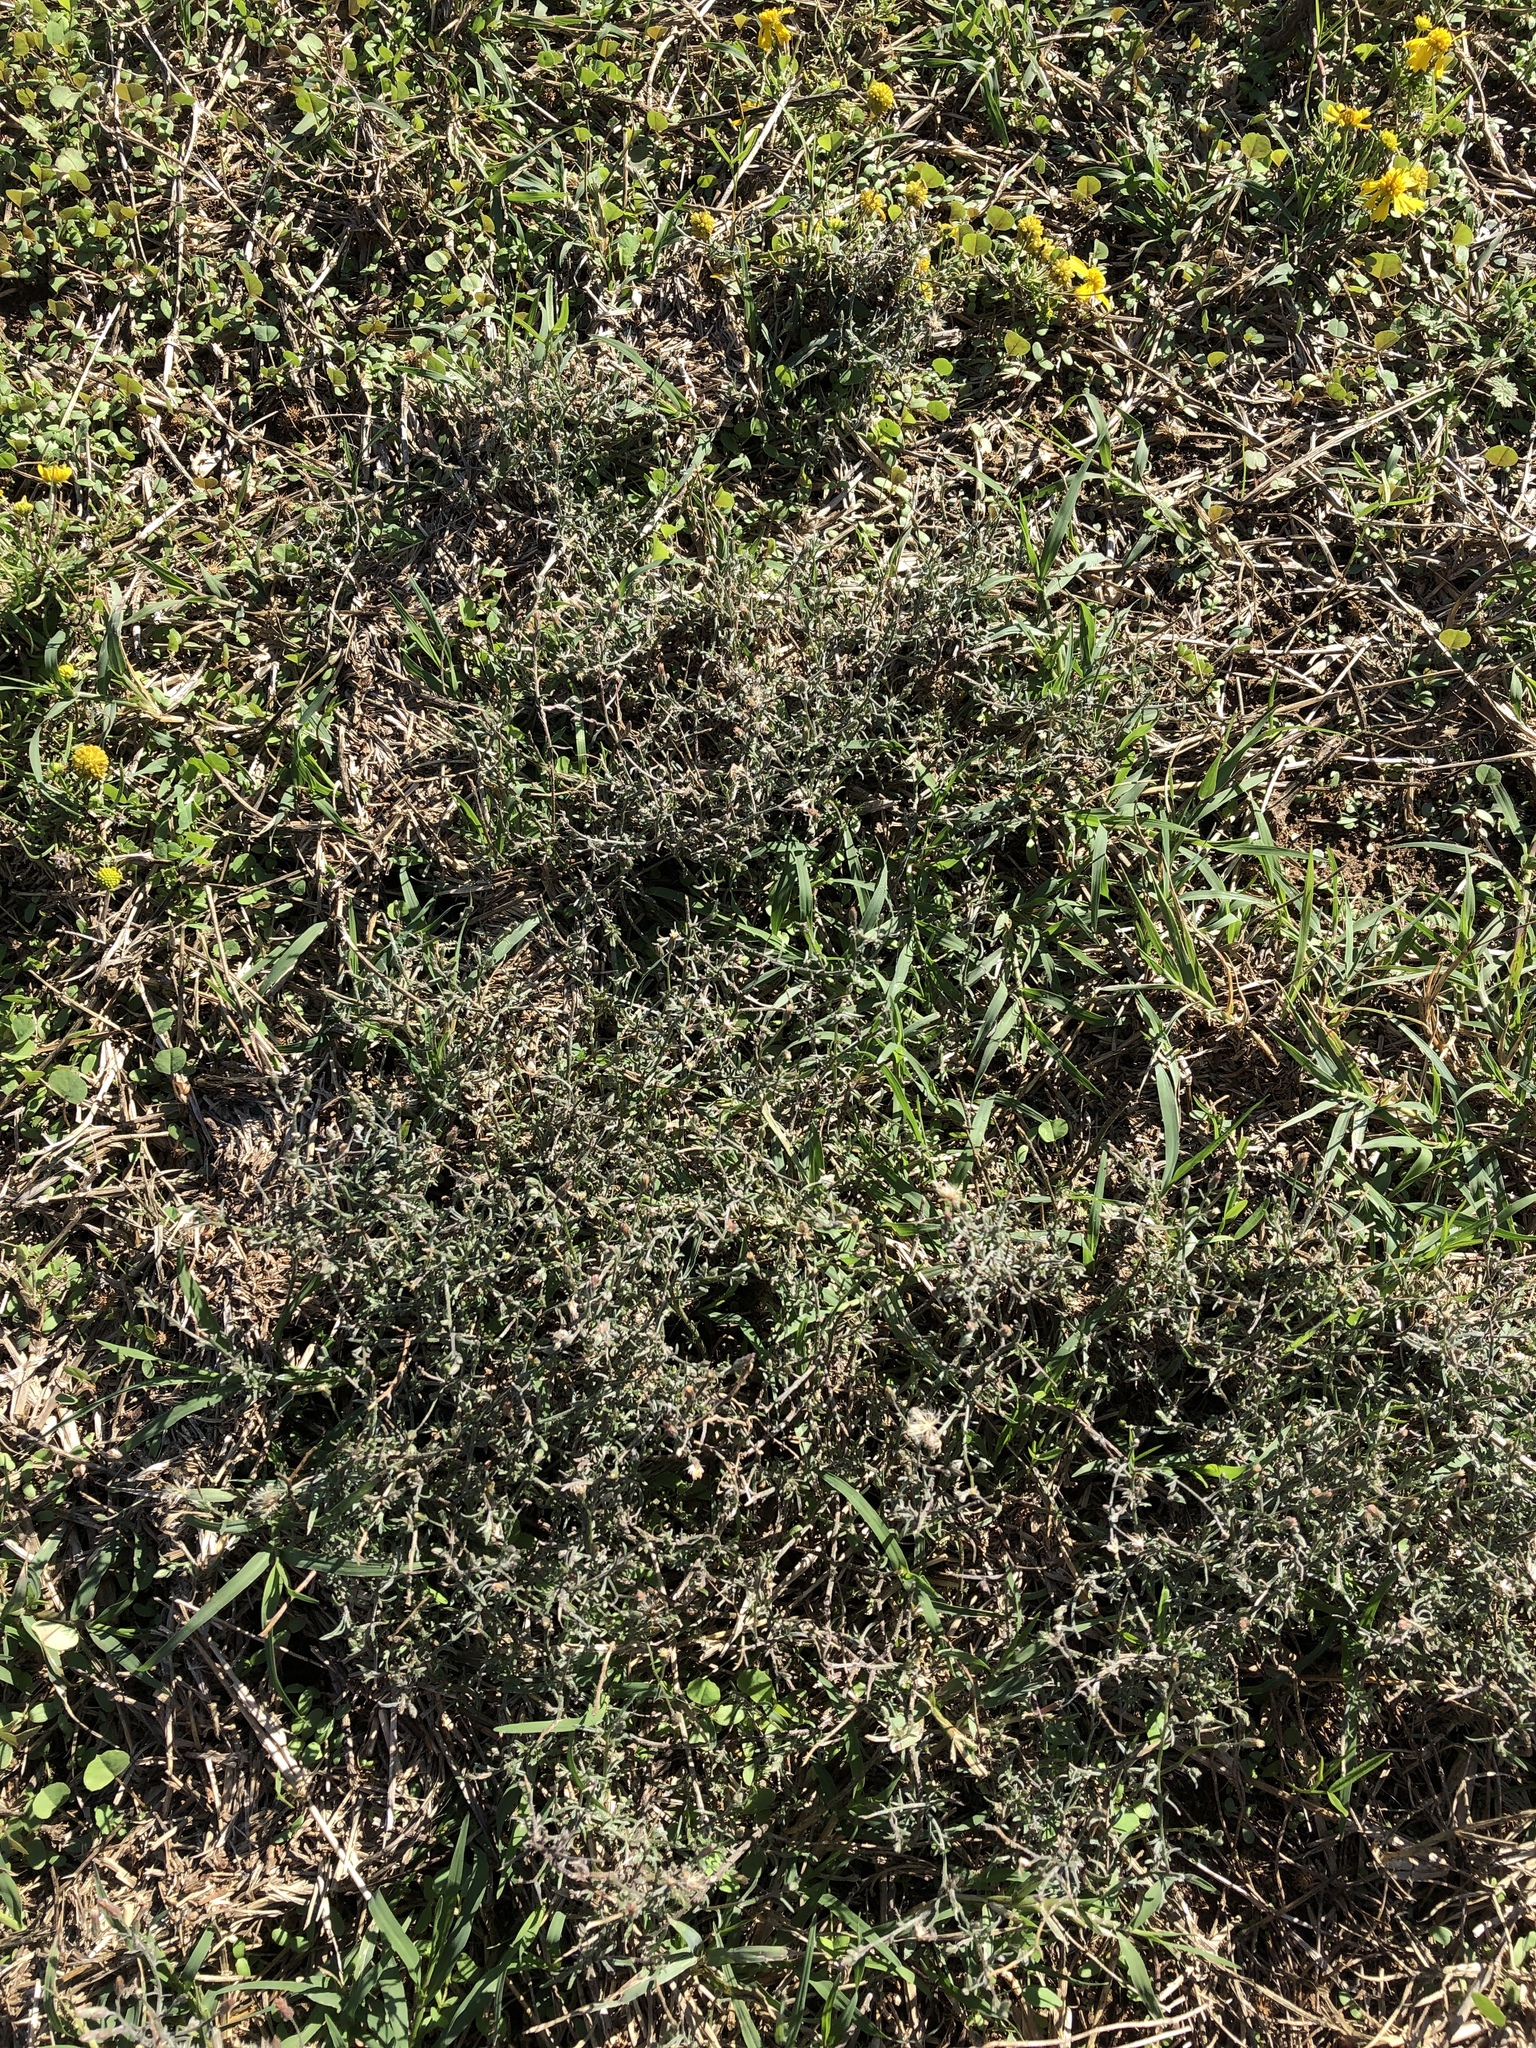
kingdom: Plantae
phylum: Tracheophyta
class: Magnoliopsida
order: Asterales
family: Asteraceae
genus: Erigeron
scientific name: Erigeron divaricatus
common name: Dwarf conyza
